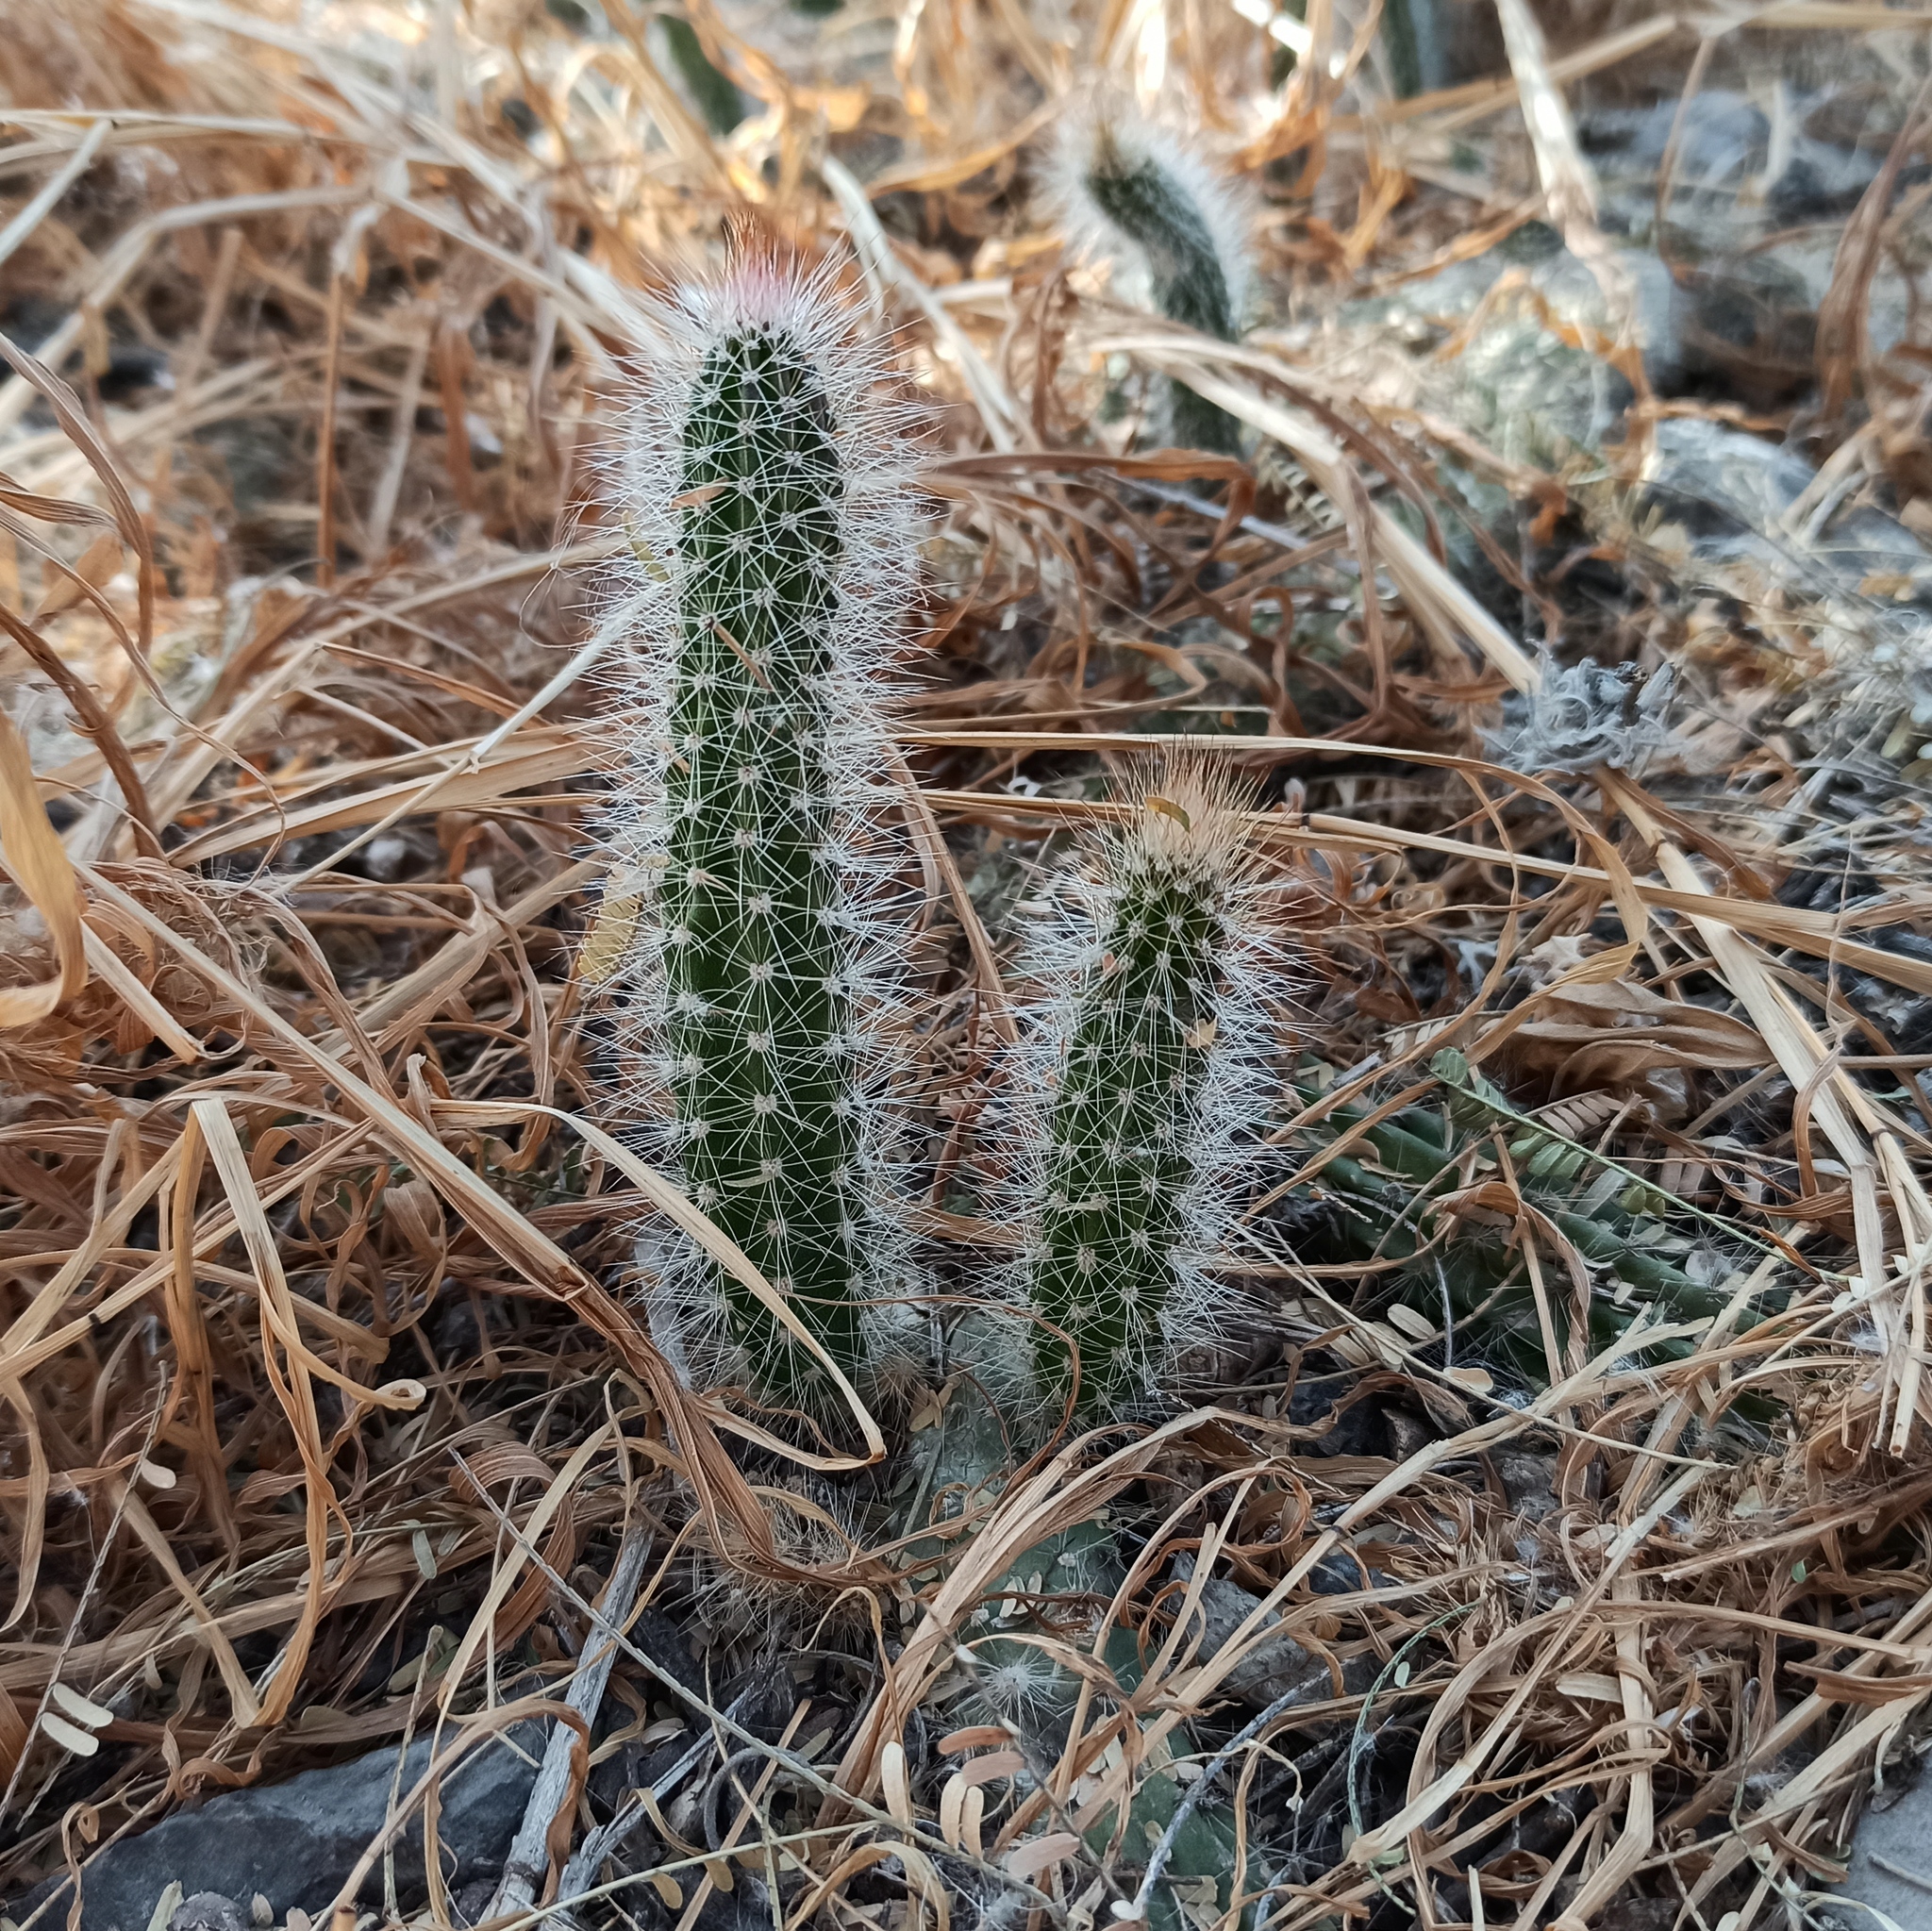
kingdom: Plantae
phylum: Tracheophyta
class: Magnoliopsida
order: Caryophyllales
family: Cactaceae
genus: Peniocereus
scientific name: Peniocereus serpentinus
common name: Serpent cactus
